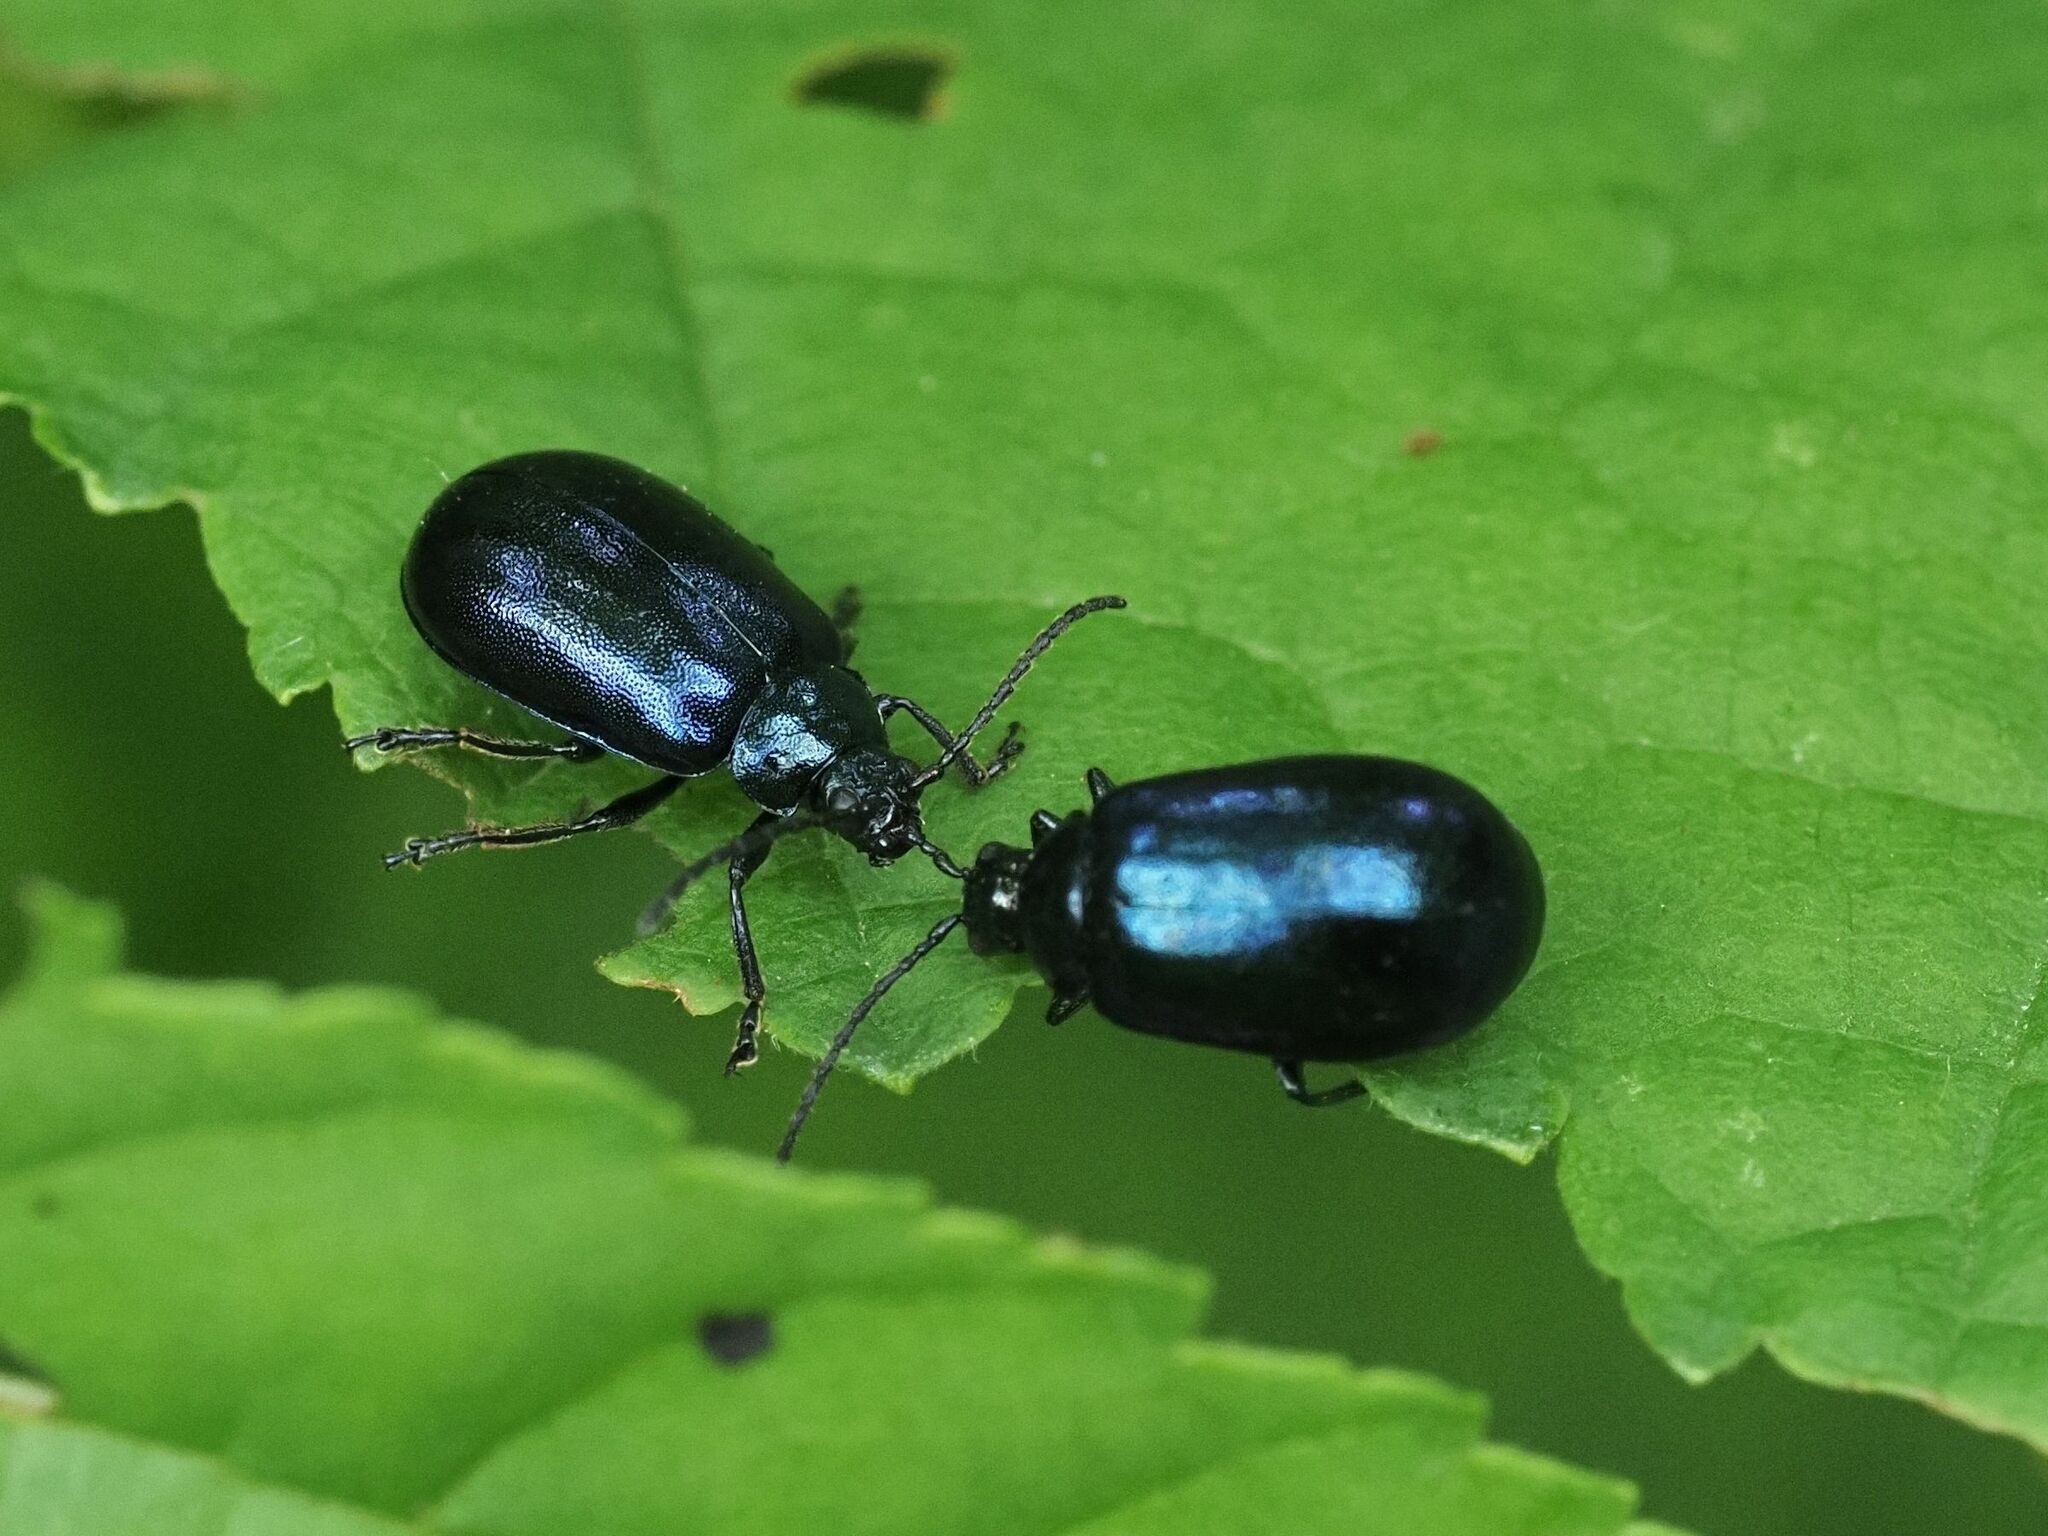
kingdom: Animalia
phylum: Arthropoda
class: Insecta
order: Coleoptera
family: Chrysomelidae
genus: Agelastica
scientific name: Agelastica alni
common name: Alder leaf beetle
